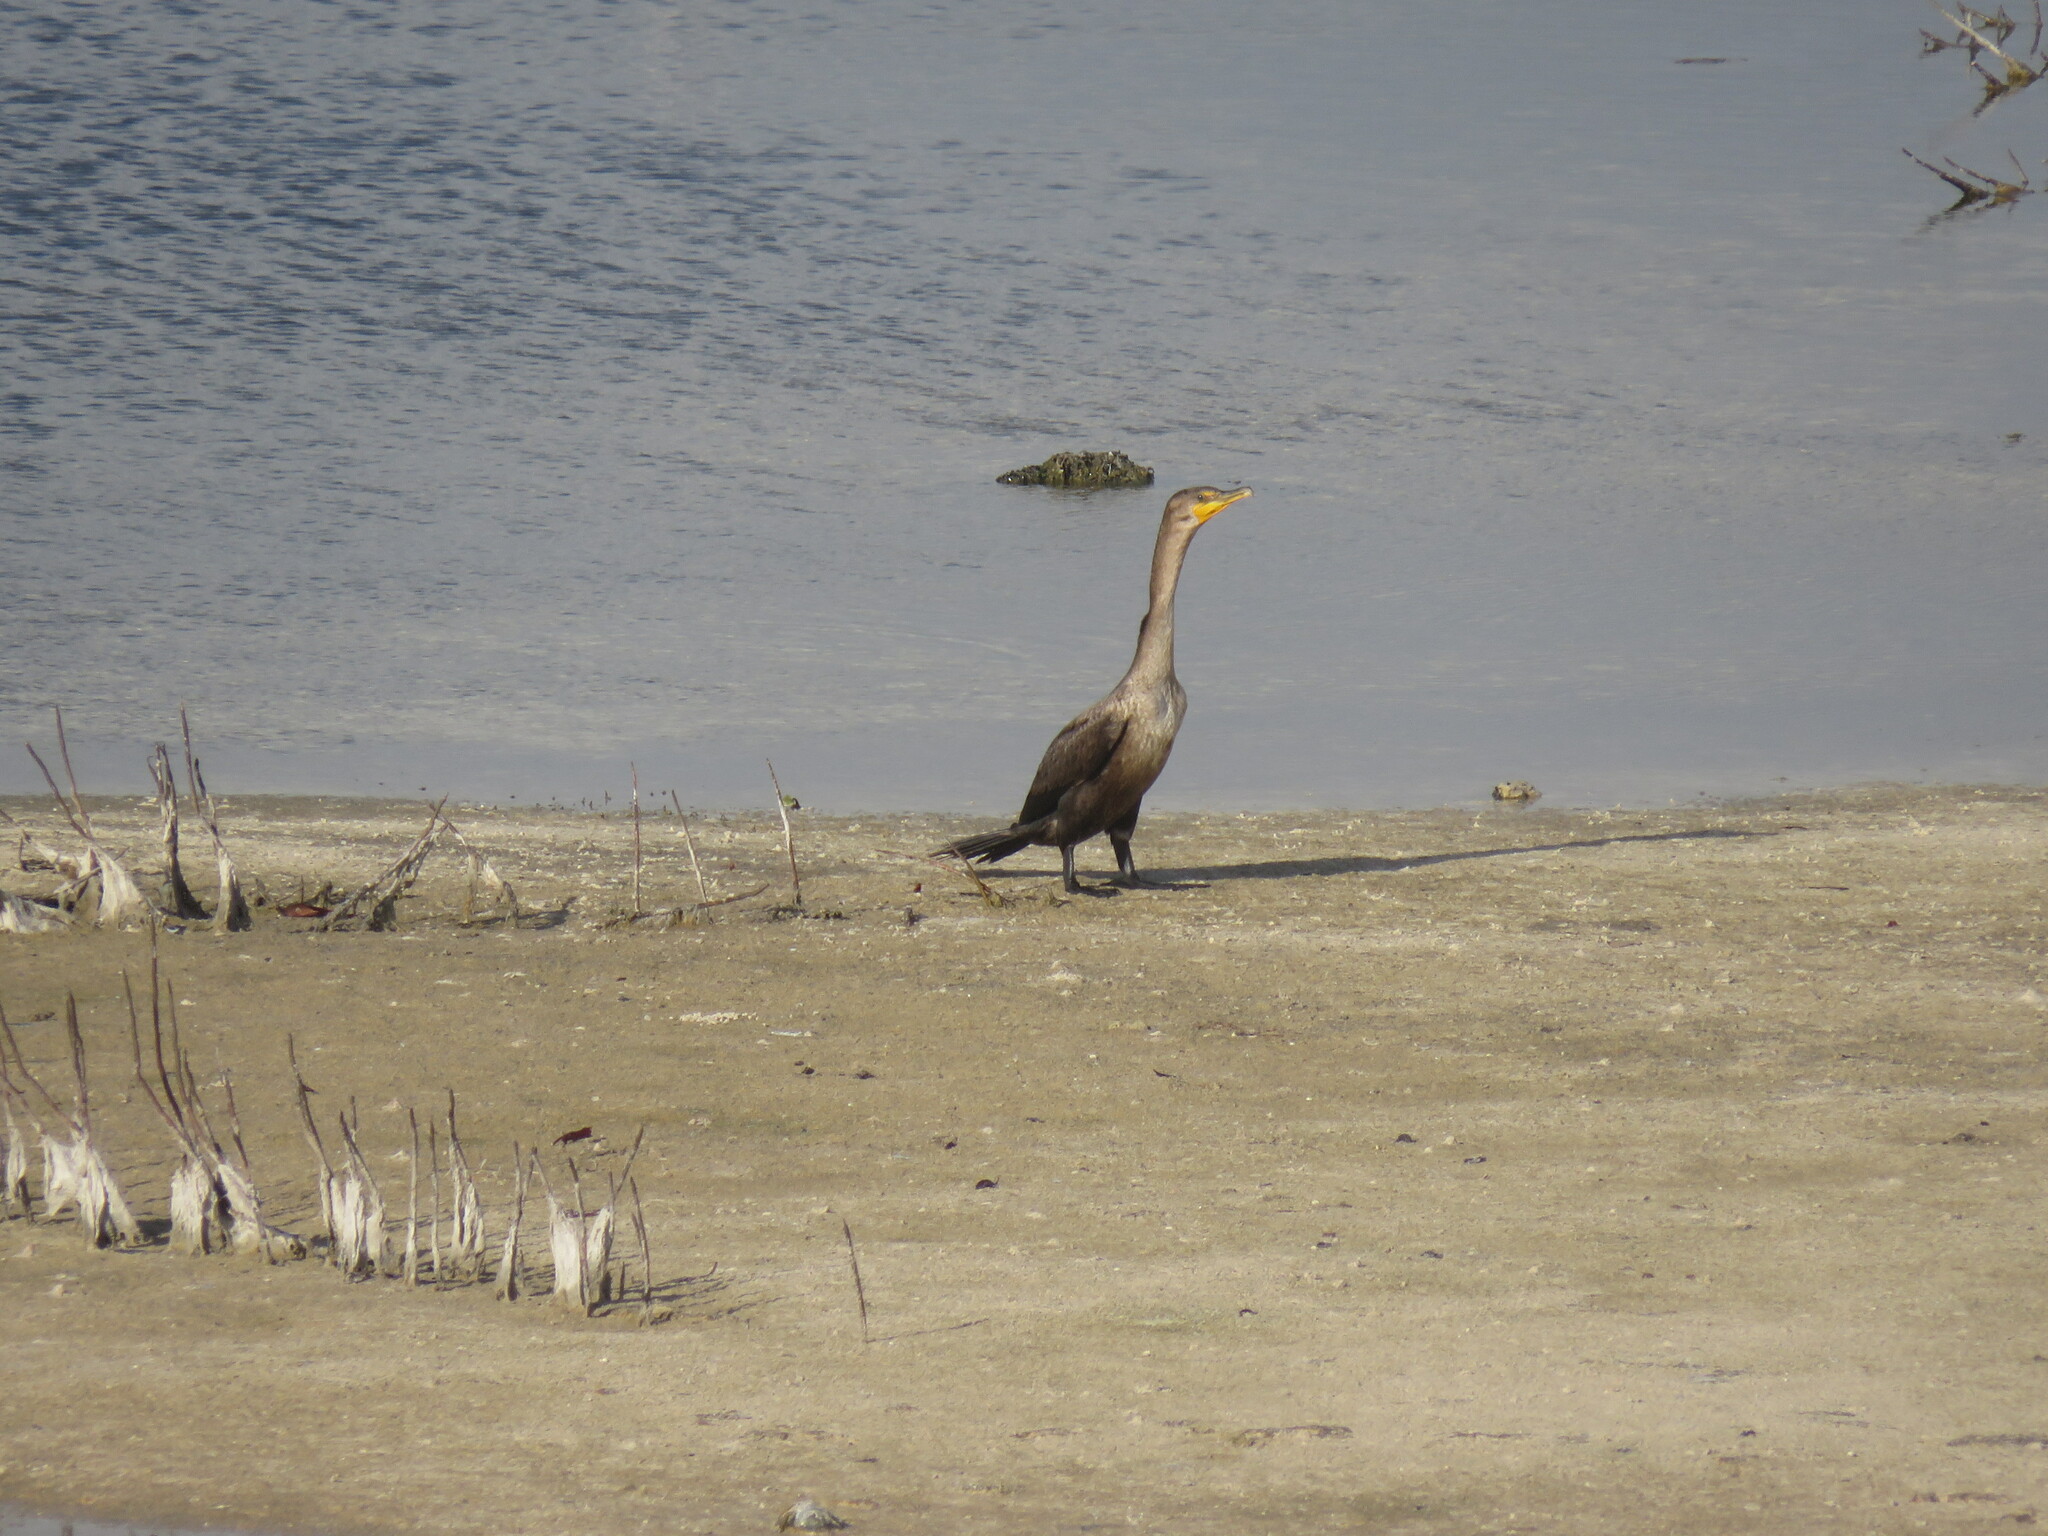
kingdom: Animalia
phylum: Chordata
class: Aves
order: Suliformes
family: Phalacrocoracidae
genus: Phalacrocorax
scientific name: Phalacrocorax auritus
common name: Double-crested cormorant
